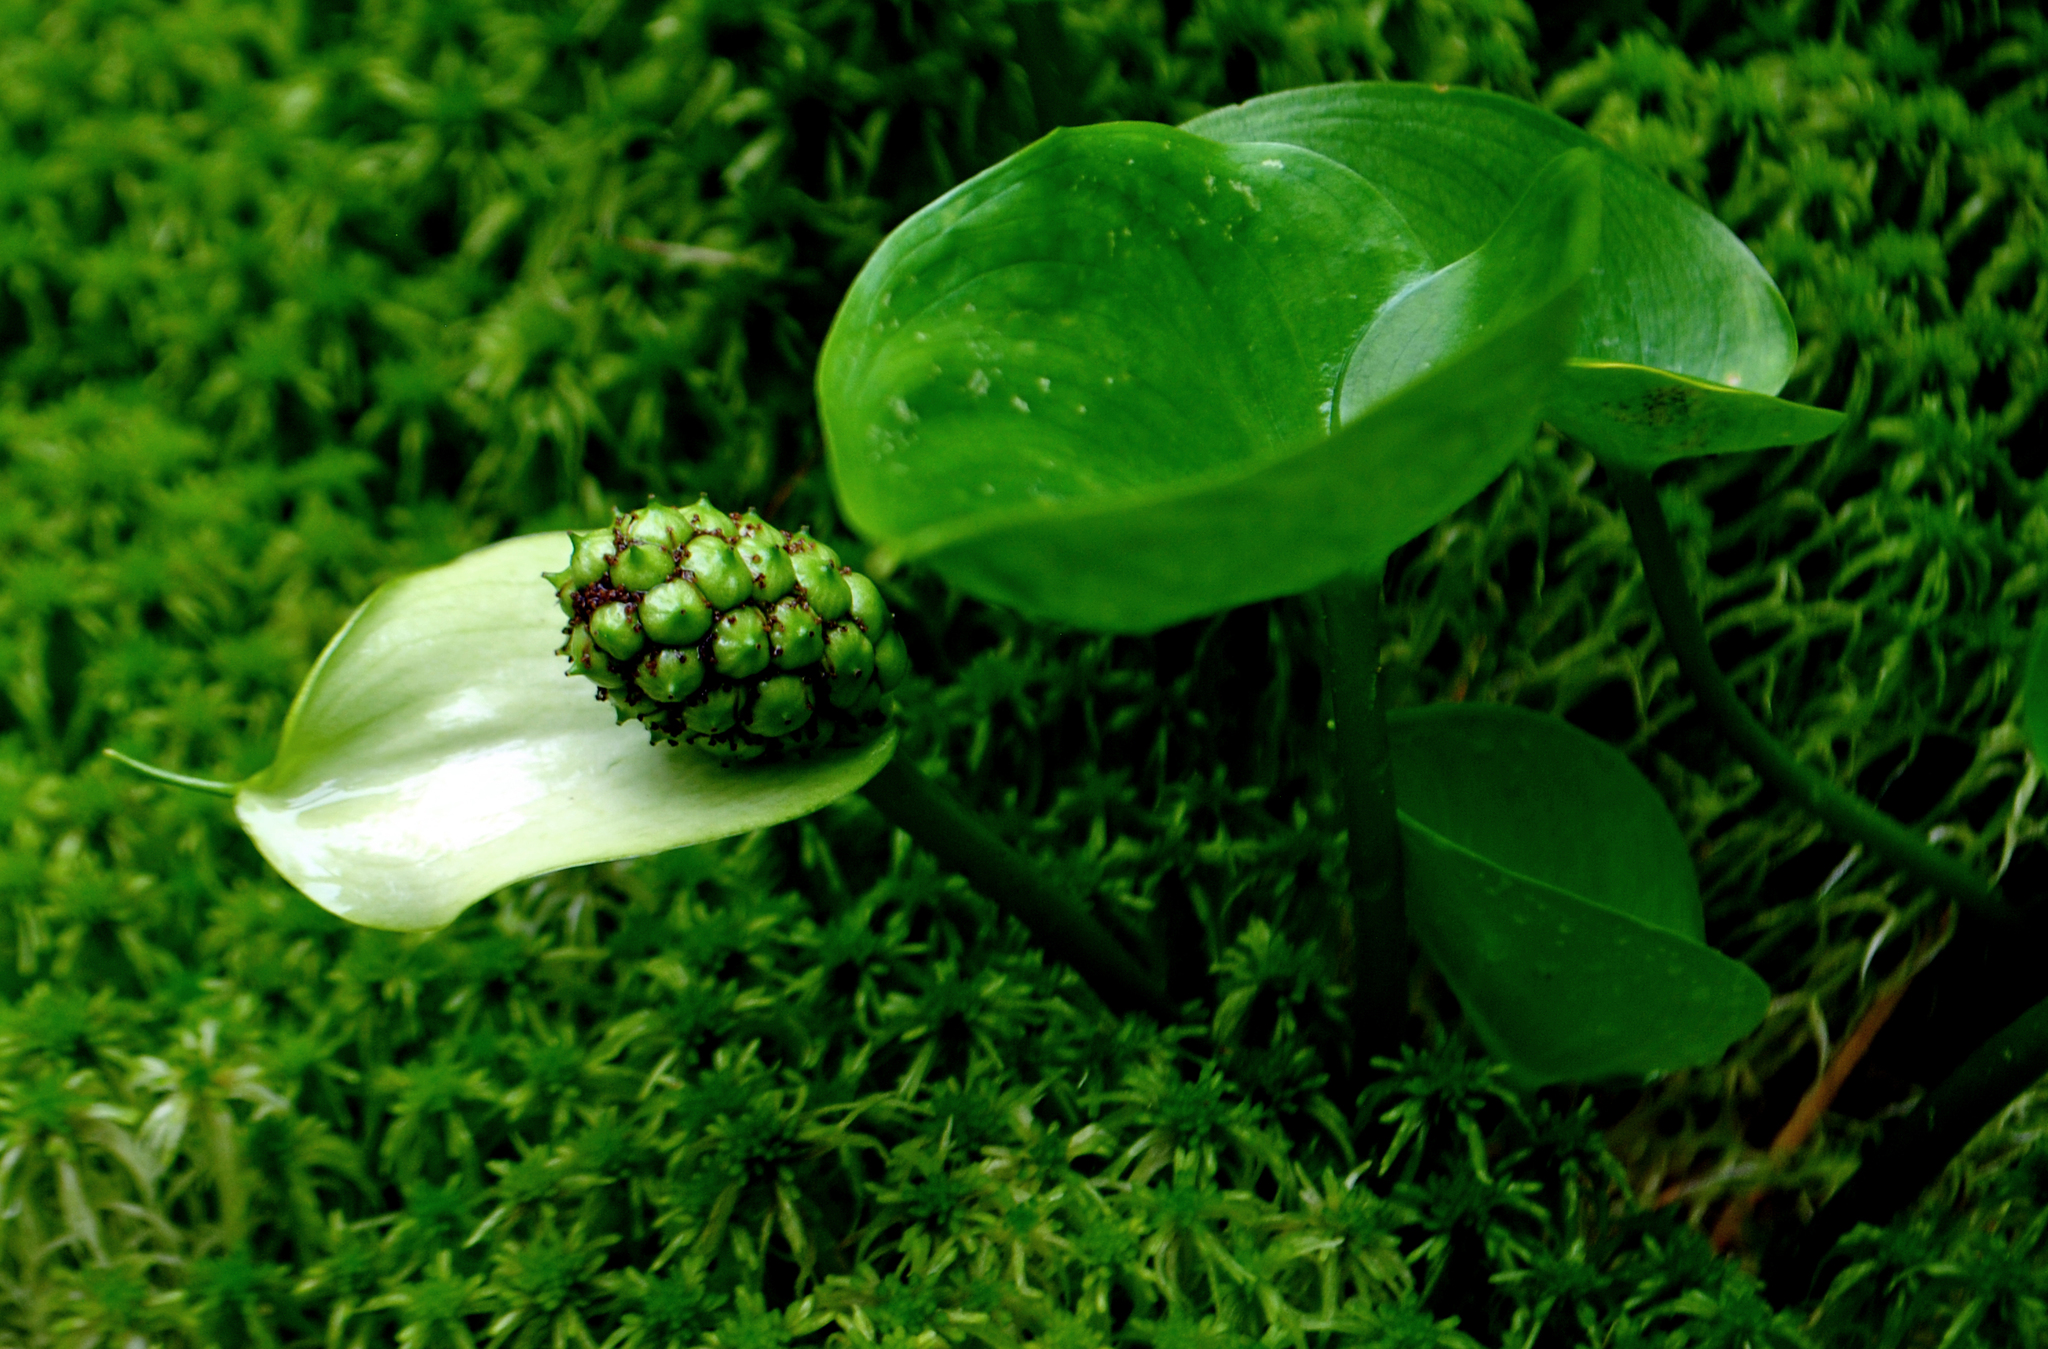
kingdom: Plantae
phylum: Tracheophyta
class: Liliopsida
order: Alismatales
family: Araceae
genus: Calla
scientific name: Calla palustris
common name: Bog arum
